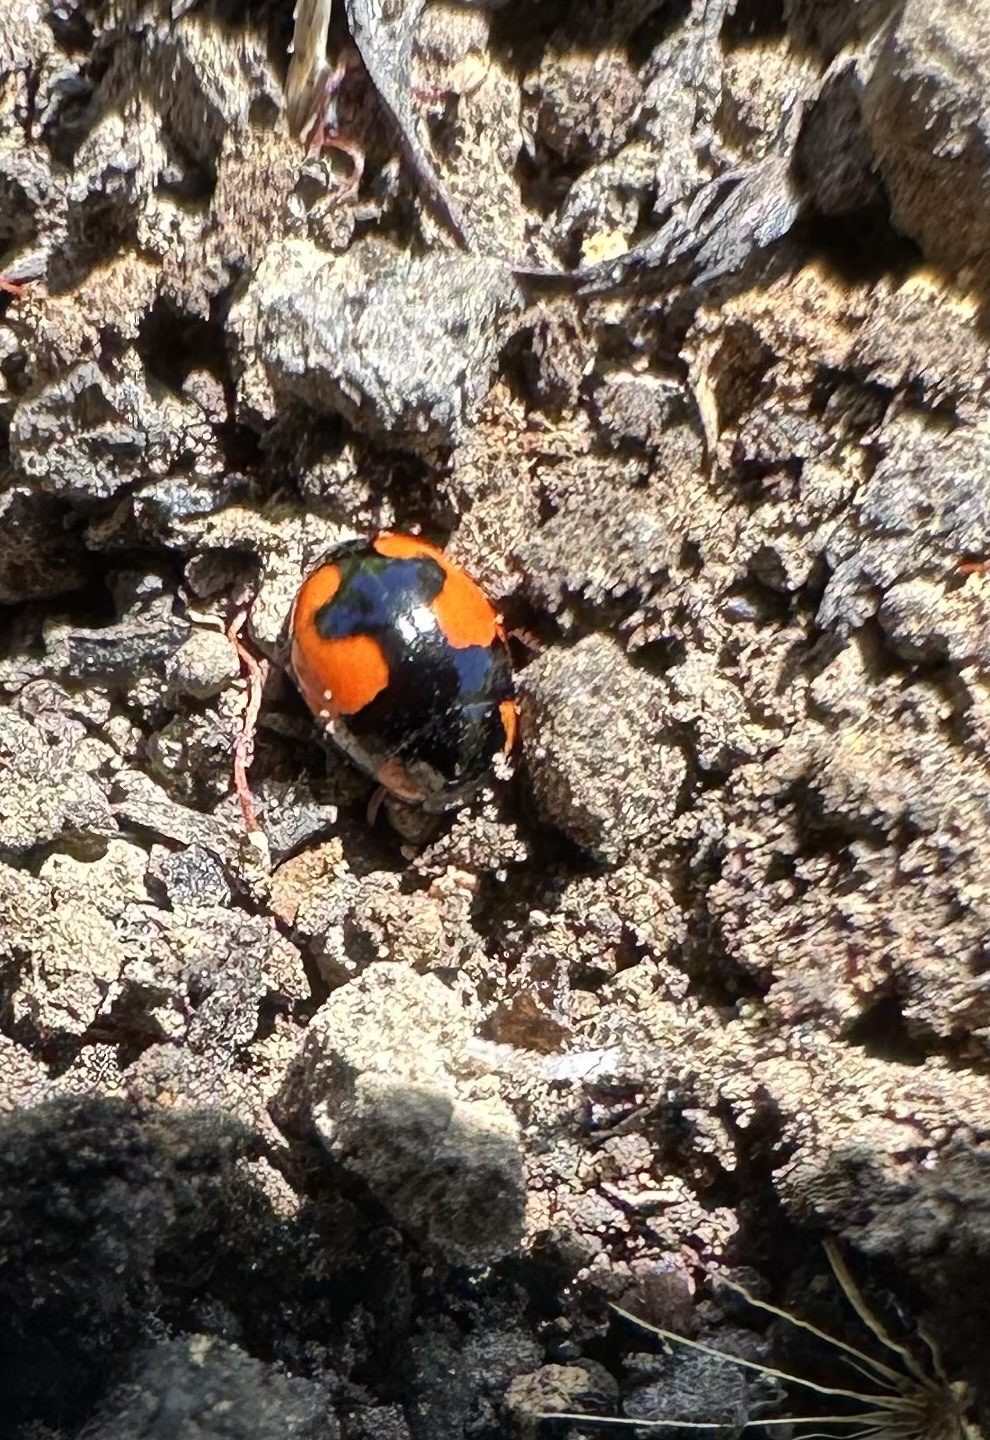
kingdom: Animalia
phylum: Arthropoda
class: Insecta
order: Coleoptera
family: Coccinellidae
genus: Hyperaspis
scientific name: Hyperaspis
